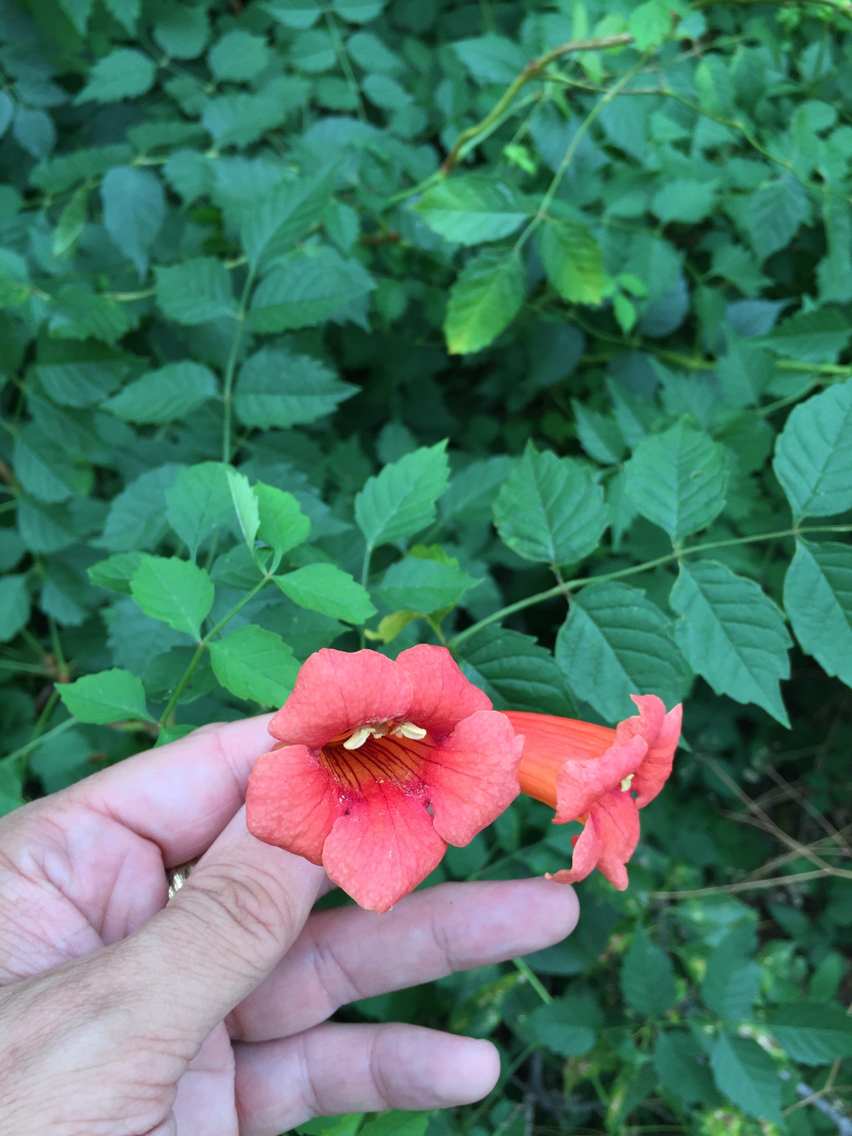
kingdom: Plantae
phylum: Tracheophyta
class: Magnoliopsida
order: Lamiales
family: Bignoniaceae
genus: Campsis
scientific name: Campsis radicans
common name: Trumpet-creeper
